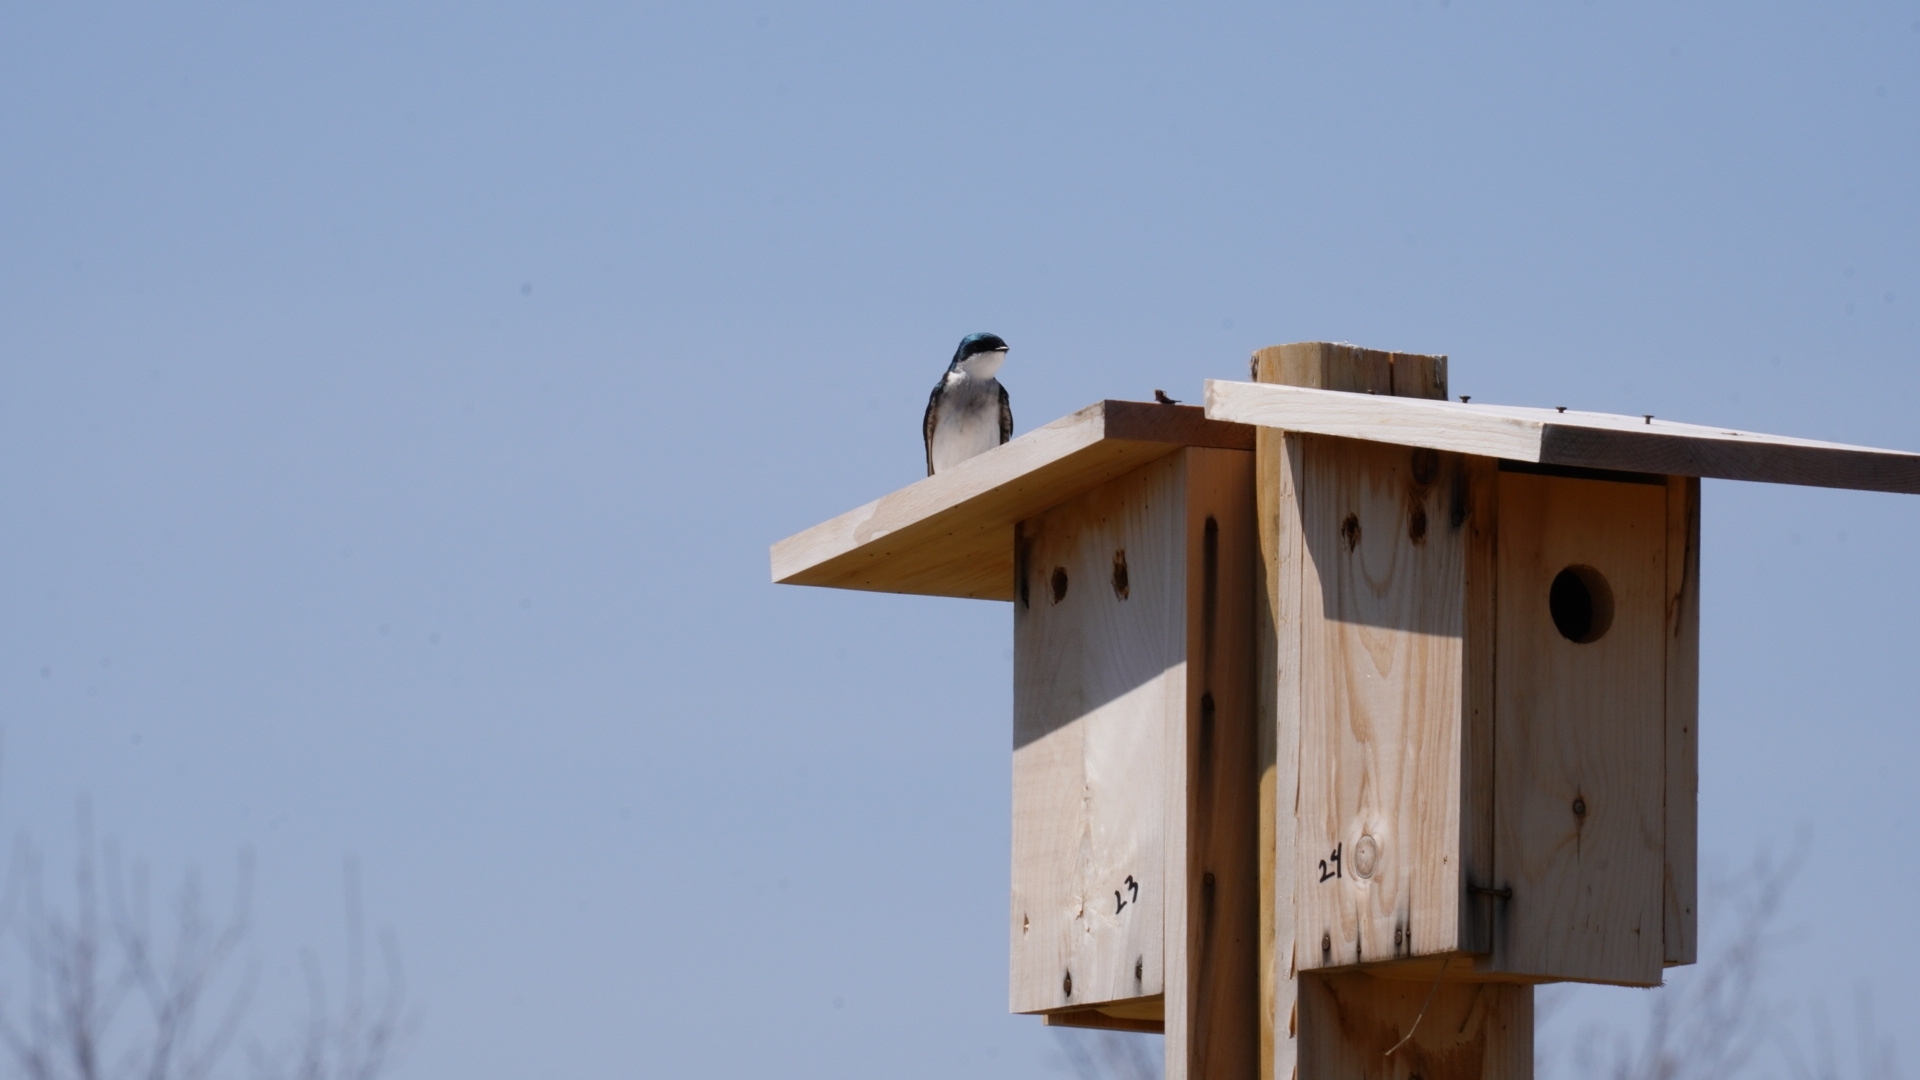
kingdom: Animalia
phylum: Chordata
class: Aves
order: Passeriformes
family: Hirundinidae
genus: Tachycineta
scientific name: Tachycineta bicolor
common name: Tree swallow
